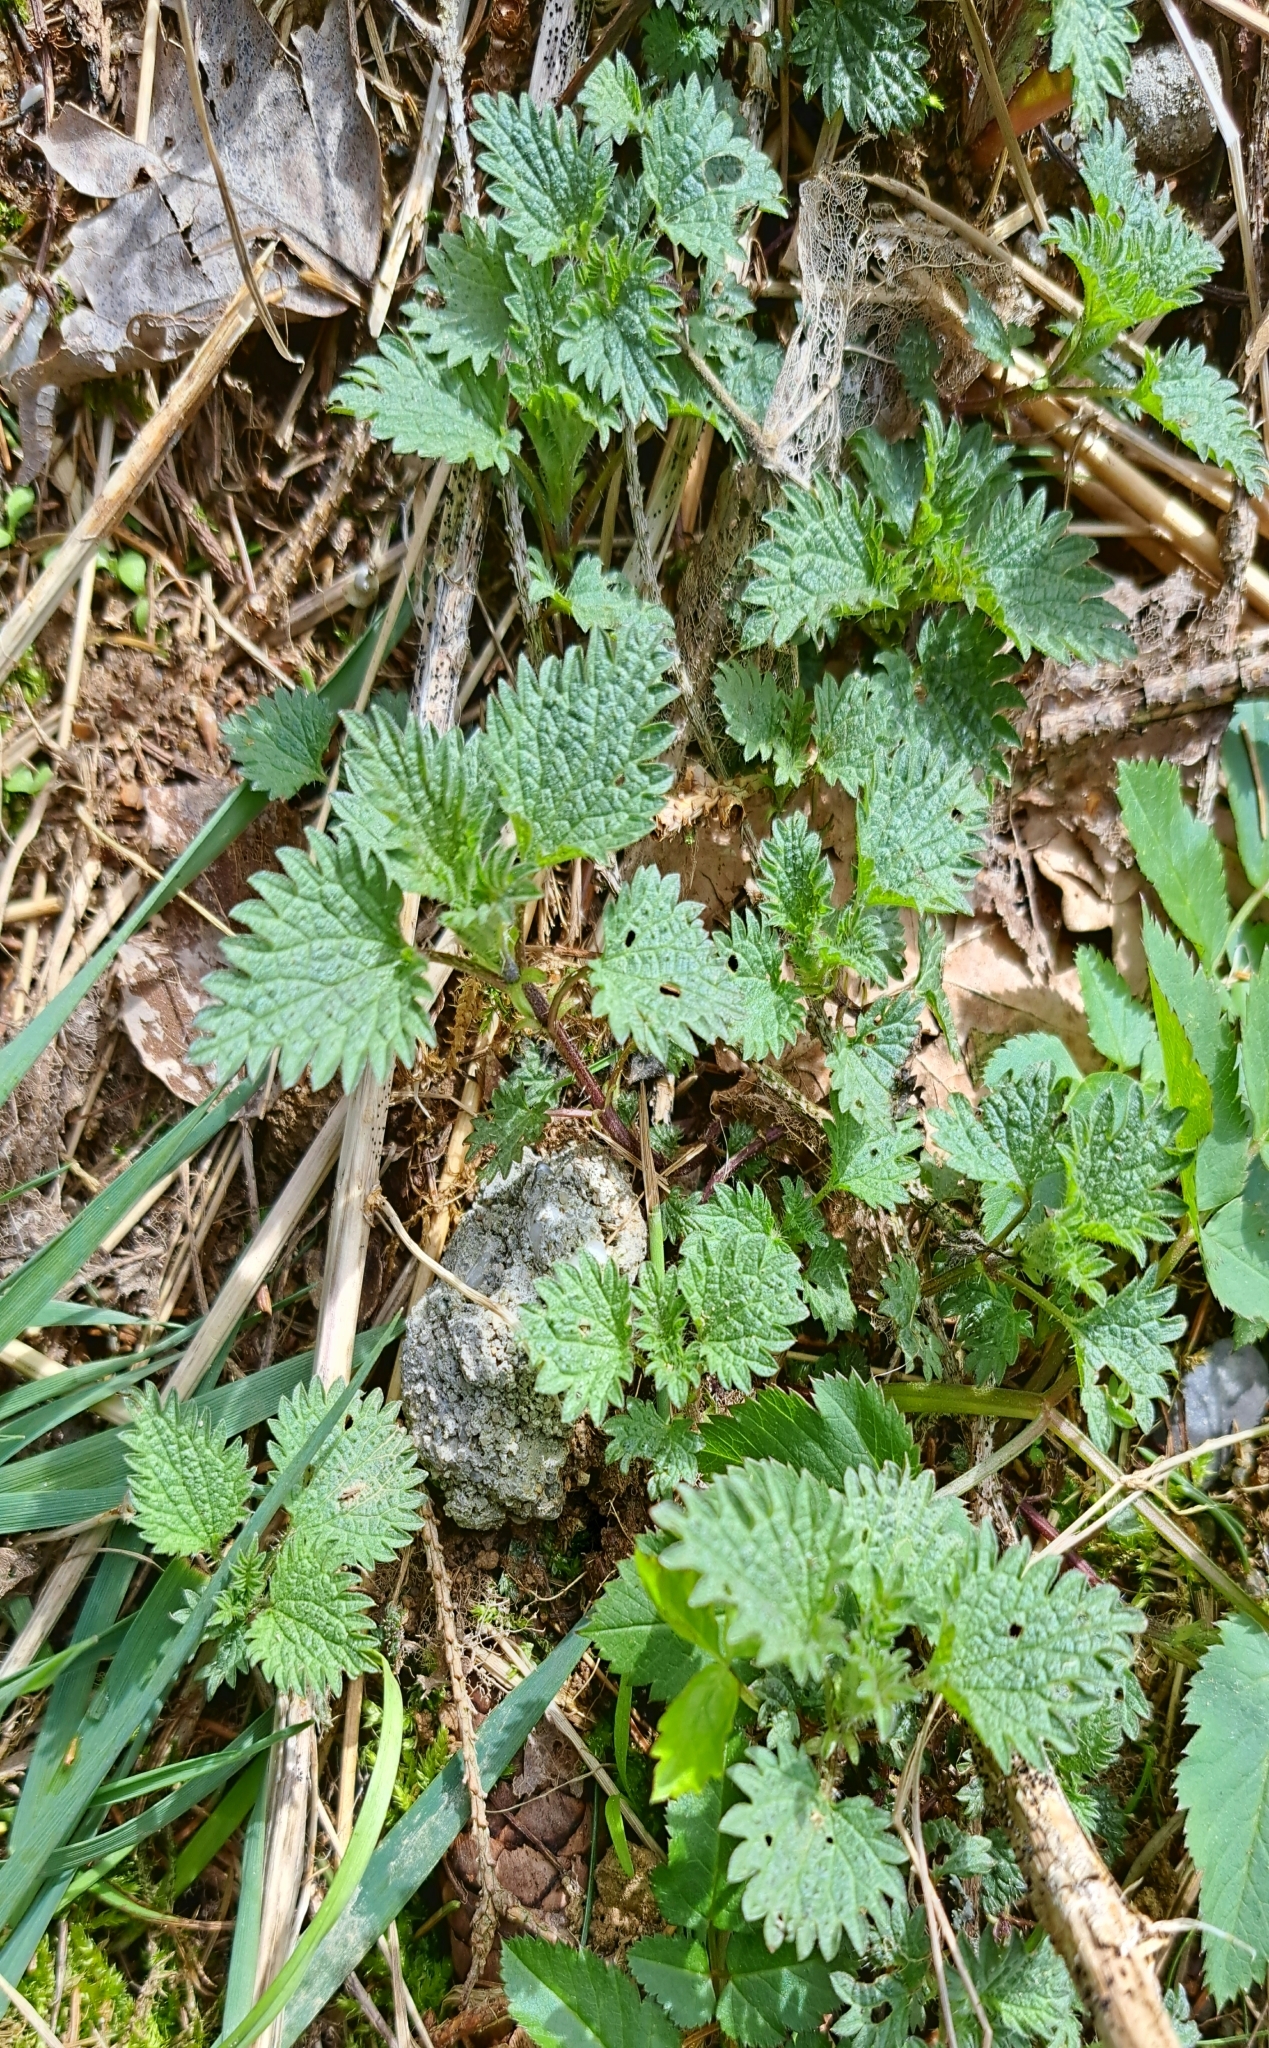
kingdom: Plantae
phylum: Tracheophyta
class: Magnoliopsida
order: Rosales
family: Urticaceae
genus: Urtica
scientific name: Urtica dioica
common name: Common nettle
